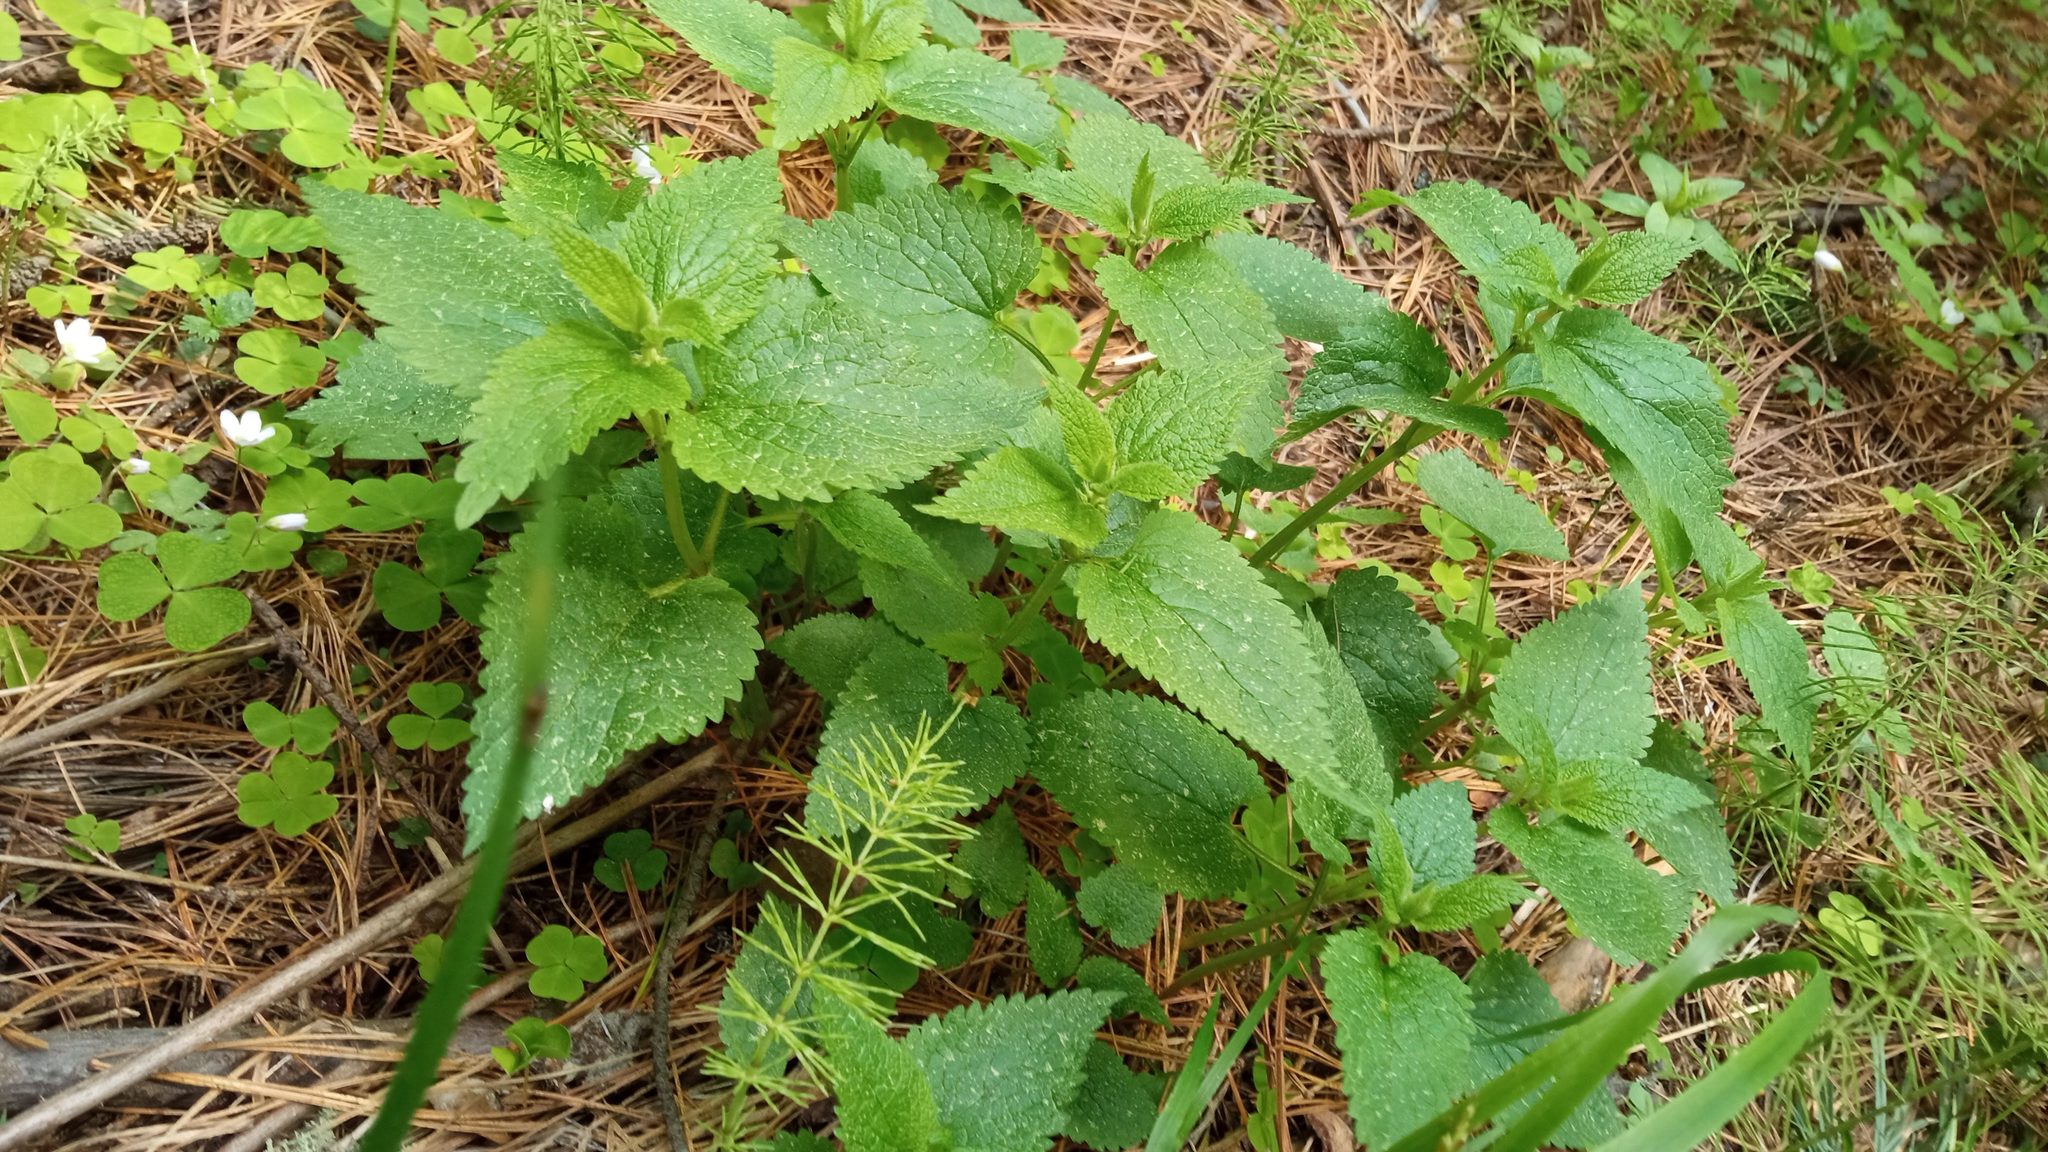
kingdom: Plantae
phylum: Tracheophyta
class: Magnoliopsida
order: Lamiales
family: Lamiaceae
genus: Lamium
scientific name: Lamium album
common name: White dead-nettle
